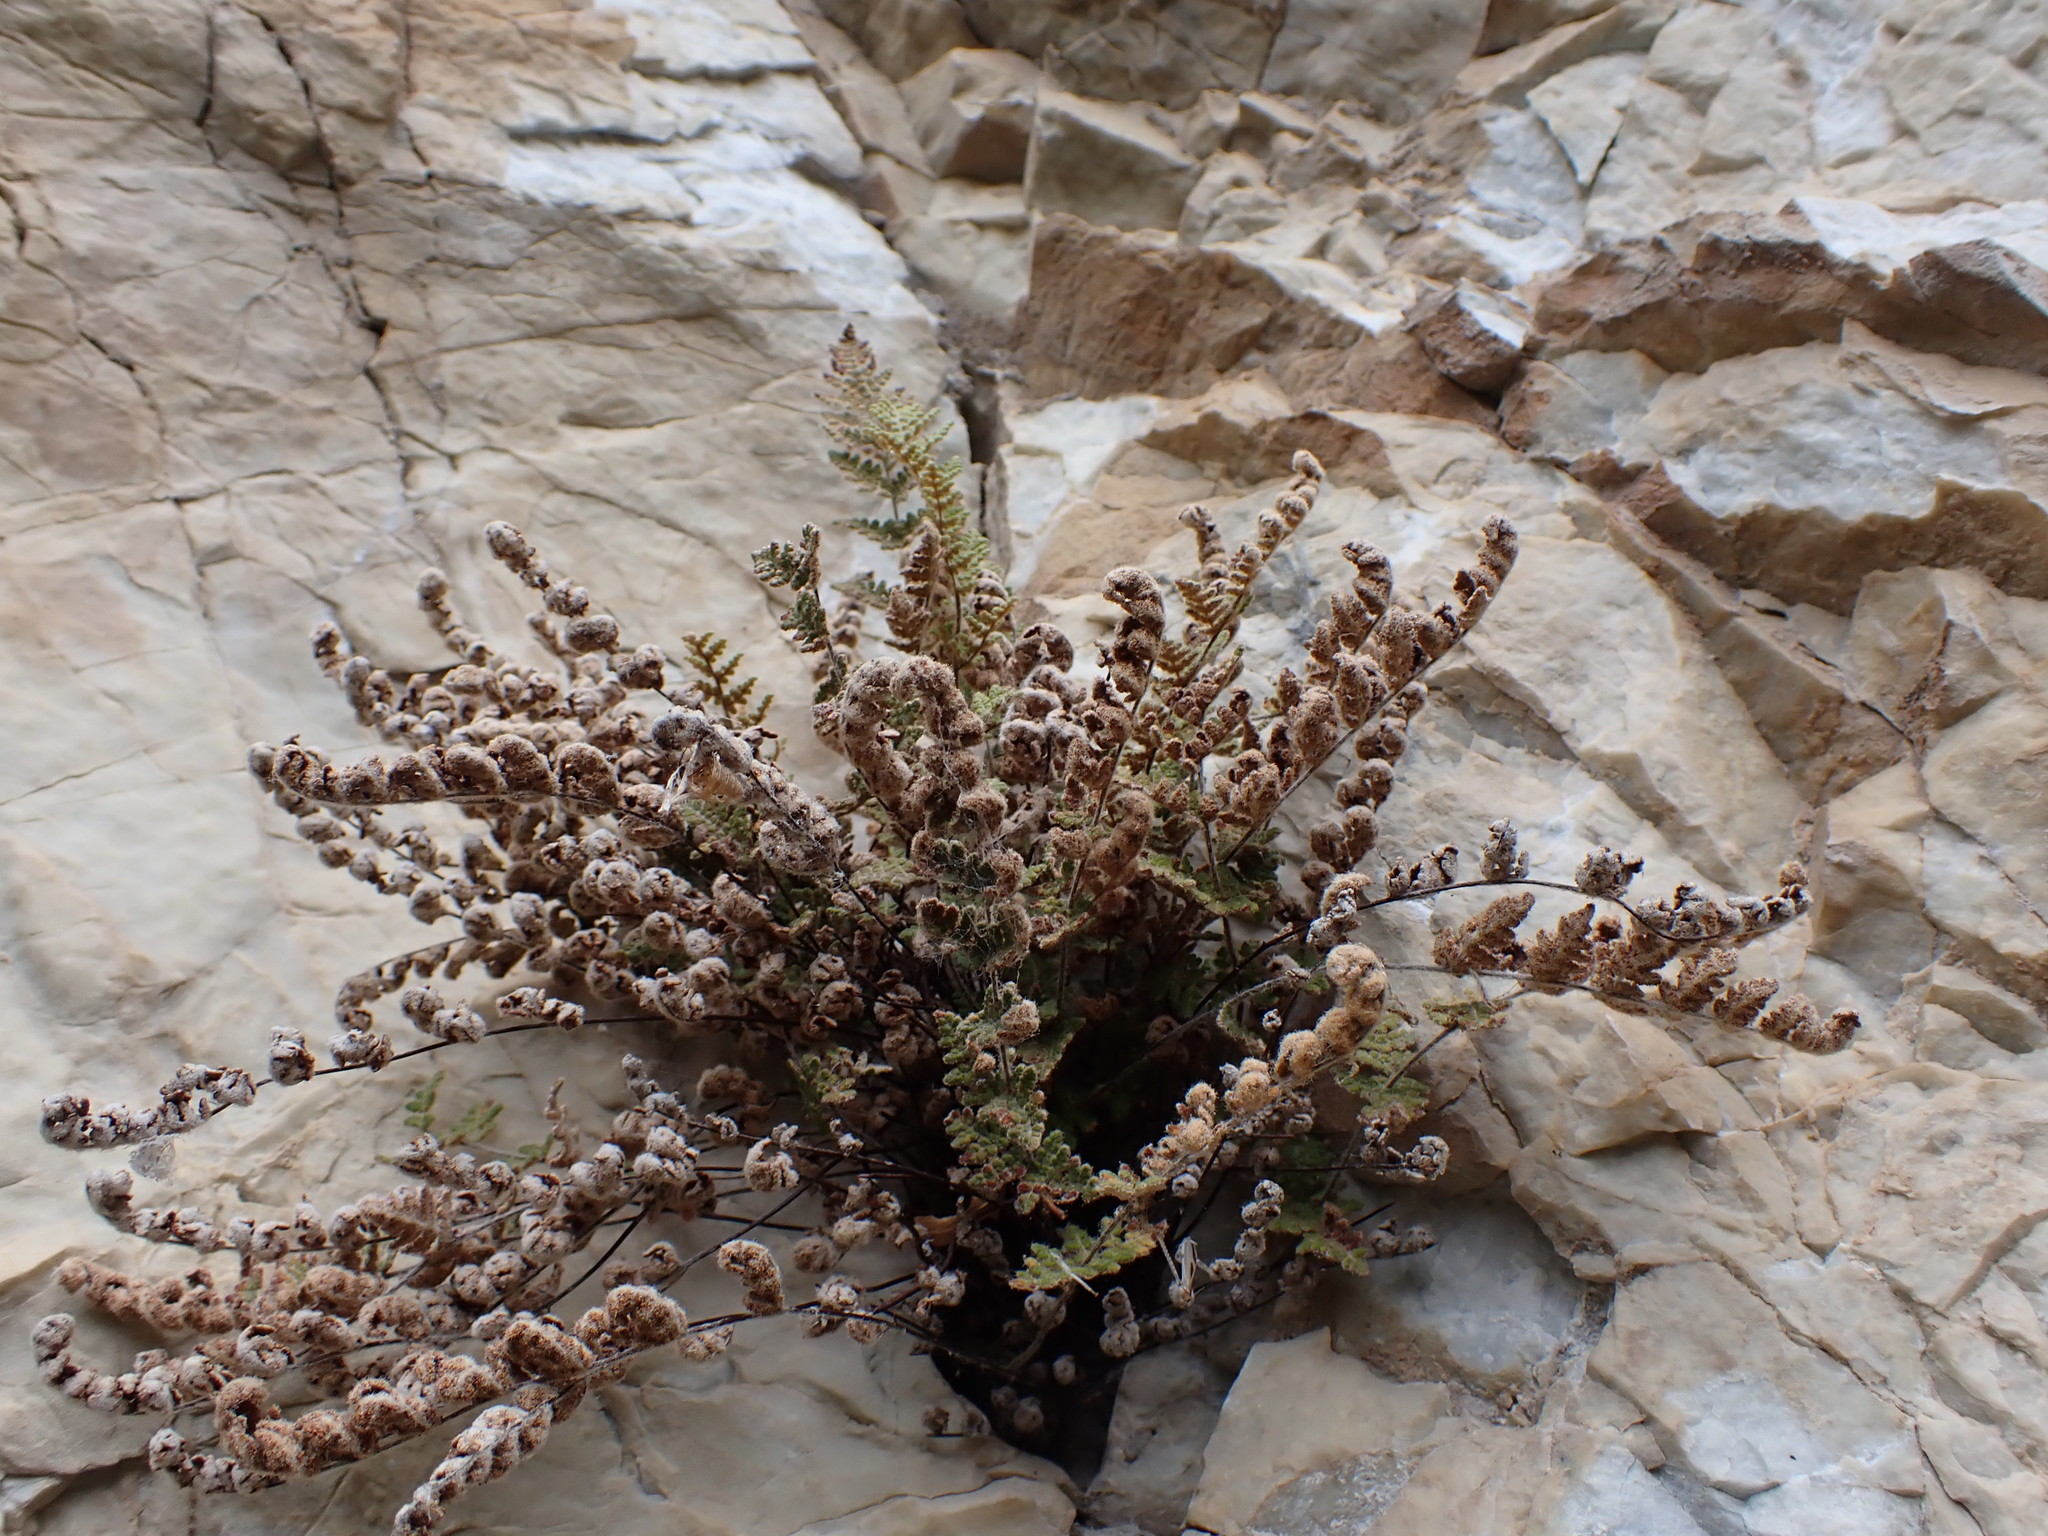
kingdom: Plantae
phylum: Tracheophyta
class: Polypodiopsida
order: Polypodiales
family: Pteridaceae
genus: Myriopteris
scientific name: Myriopteris gracilis
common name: Fee's lip fern
